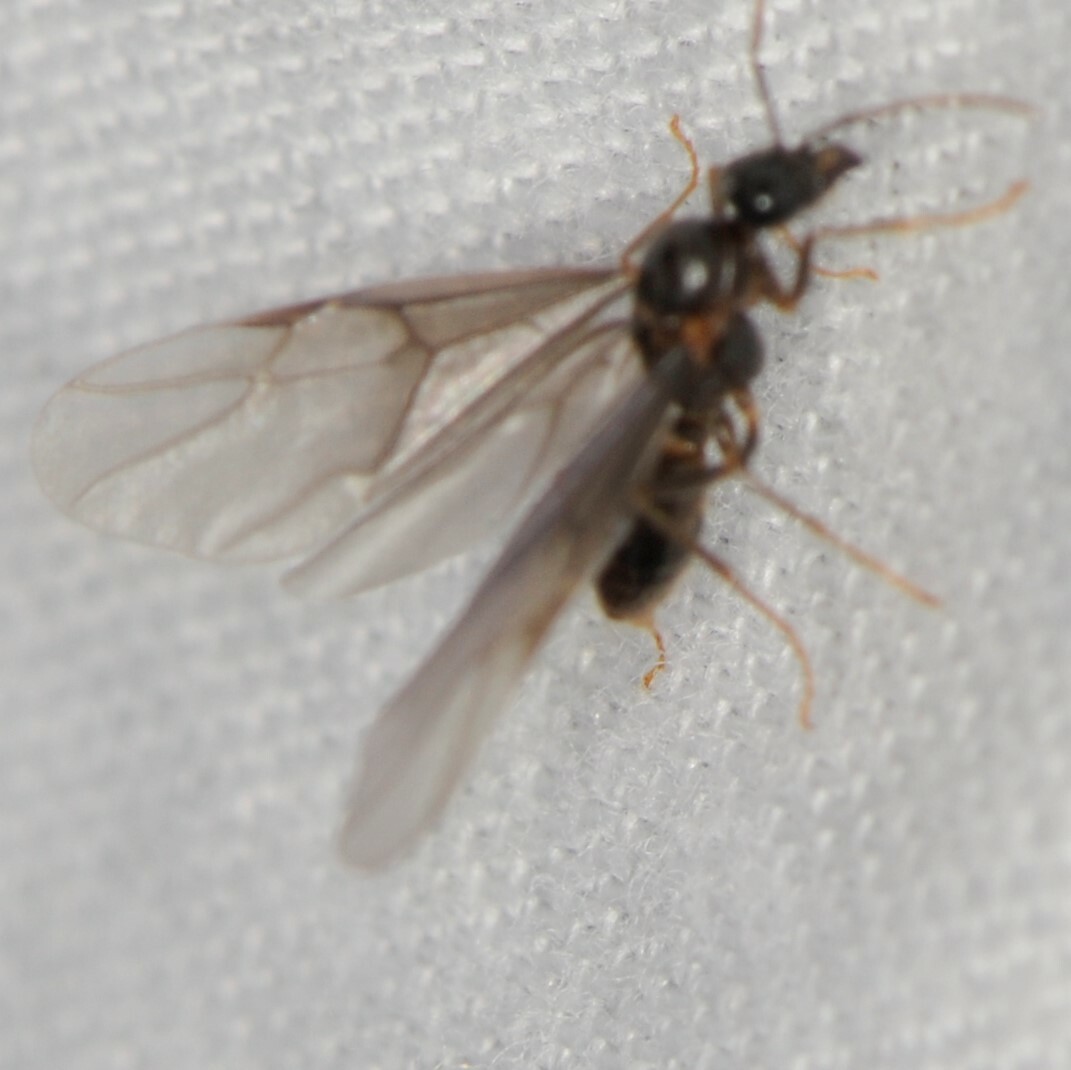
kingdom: Animalia
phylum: Arthropoda
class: Insecta
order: Hymenoptera
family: Formicidae
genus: Lasius
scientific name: Lasius
